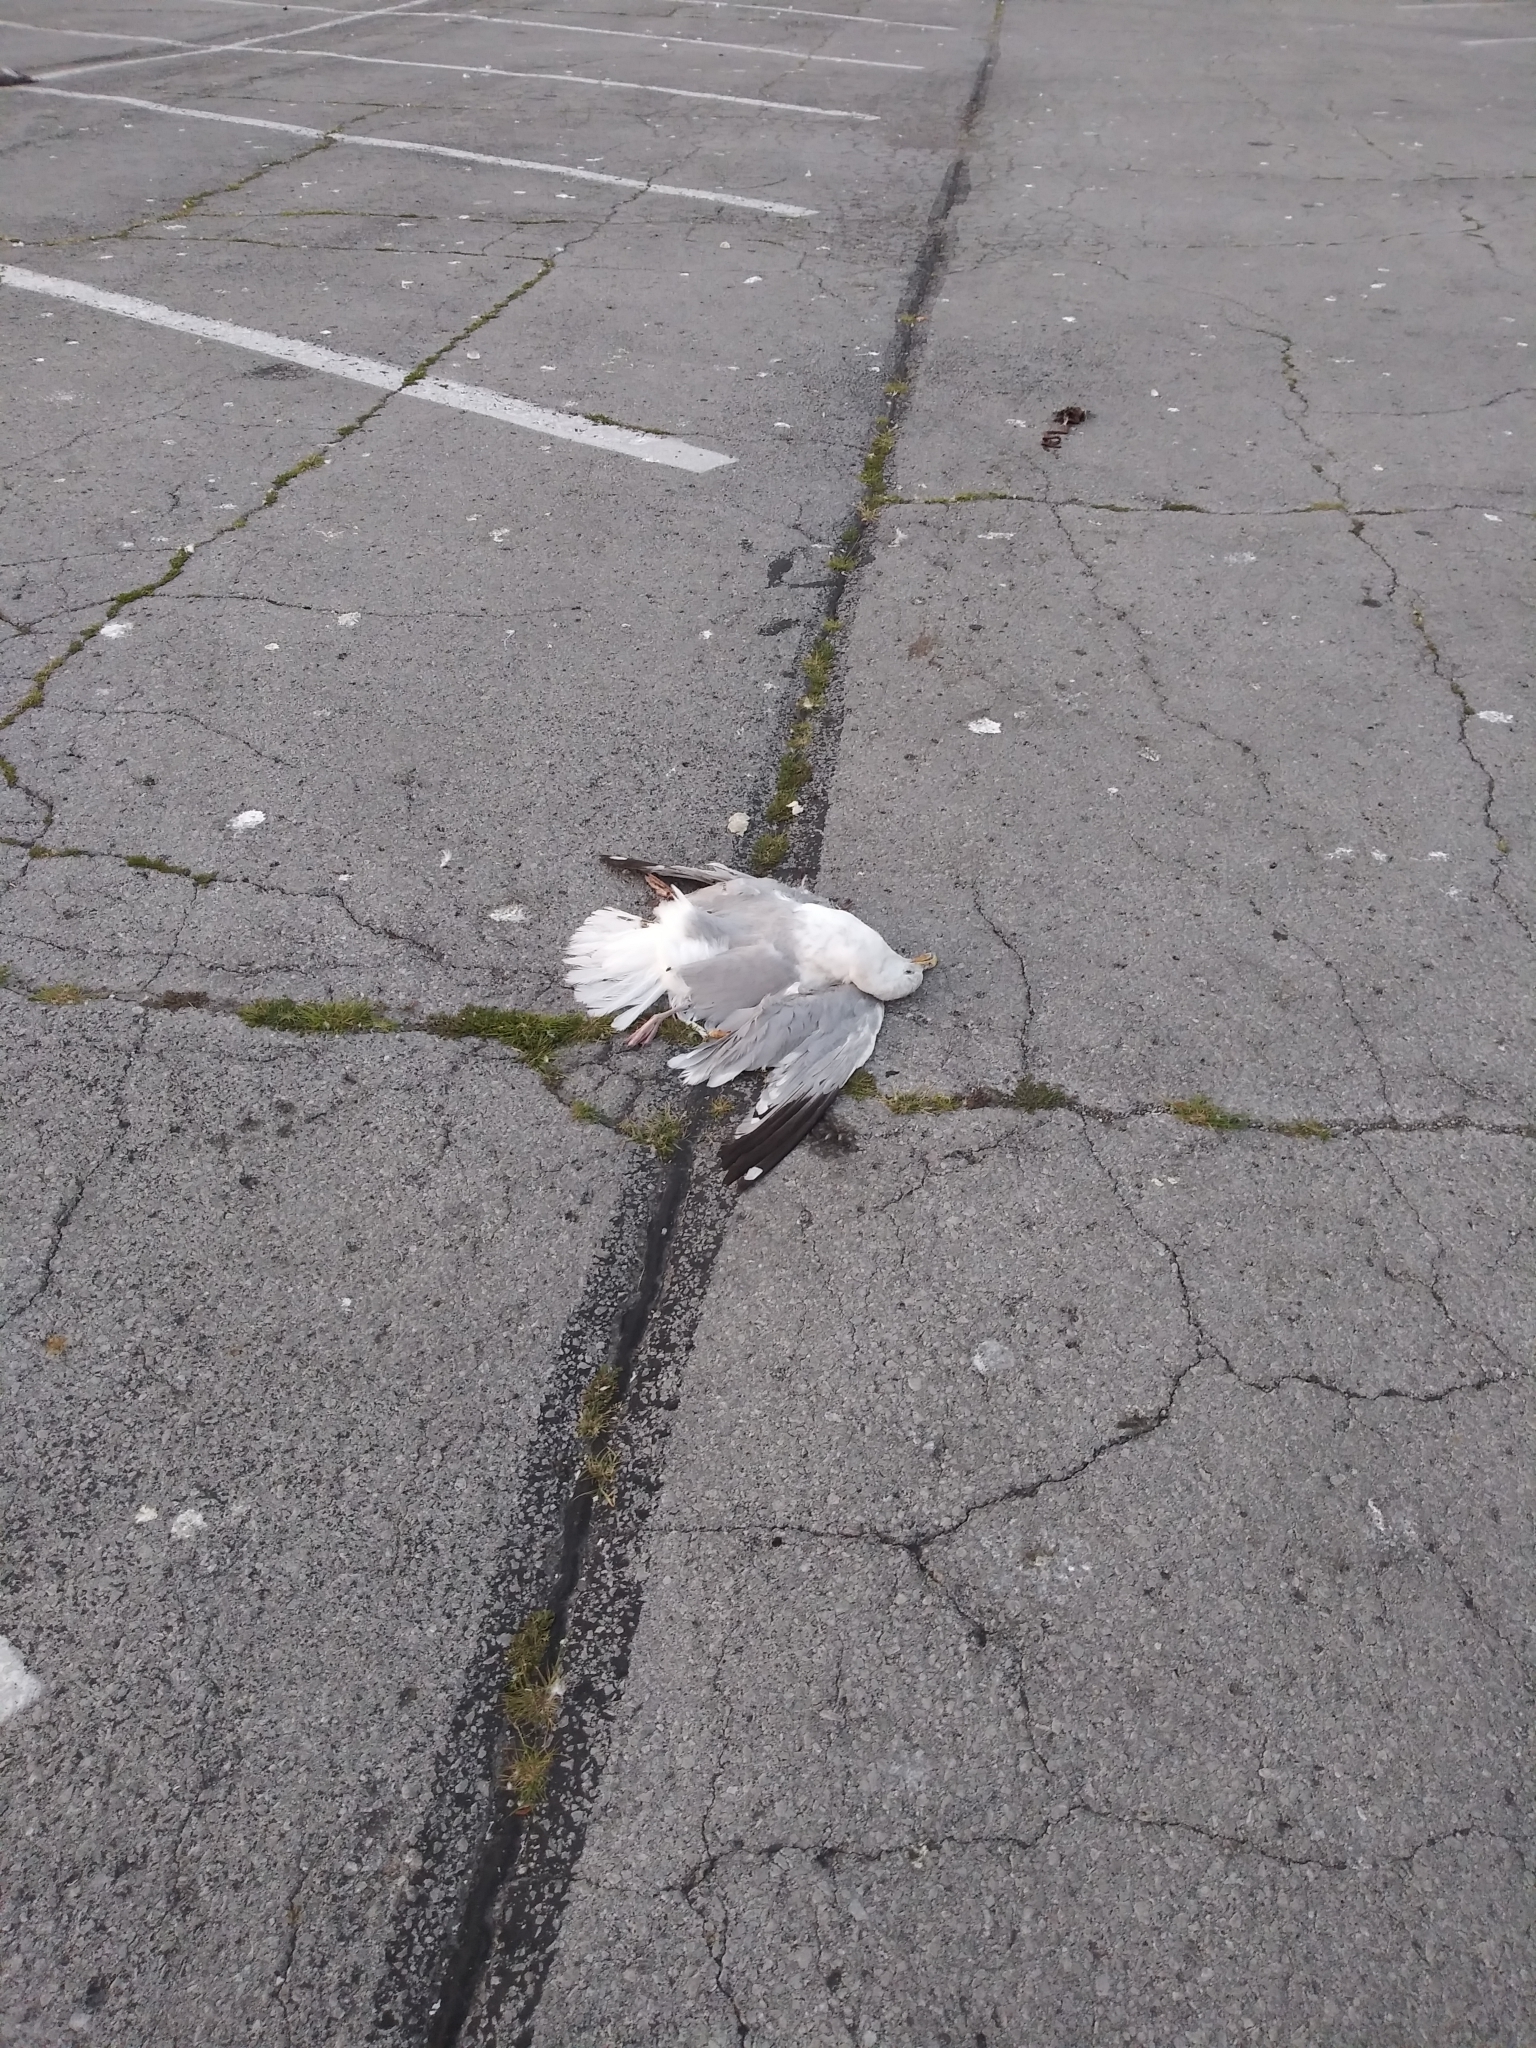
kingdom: Animalia
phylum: Chordata
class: Aves
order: Charadriiformes
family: Laridae
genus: Larus
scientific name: Larus argentatus
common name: Herring gull
